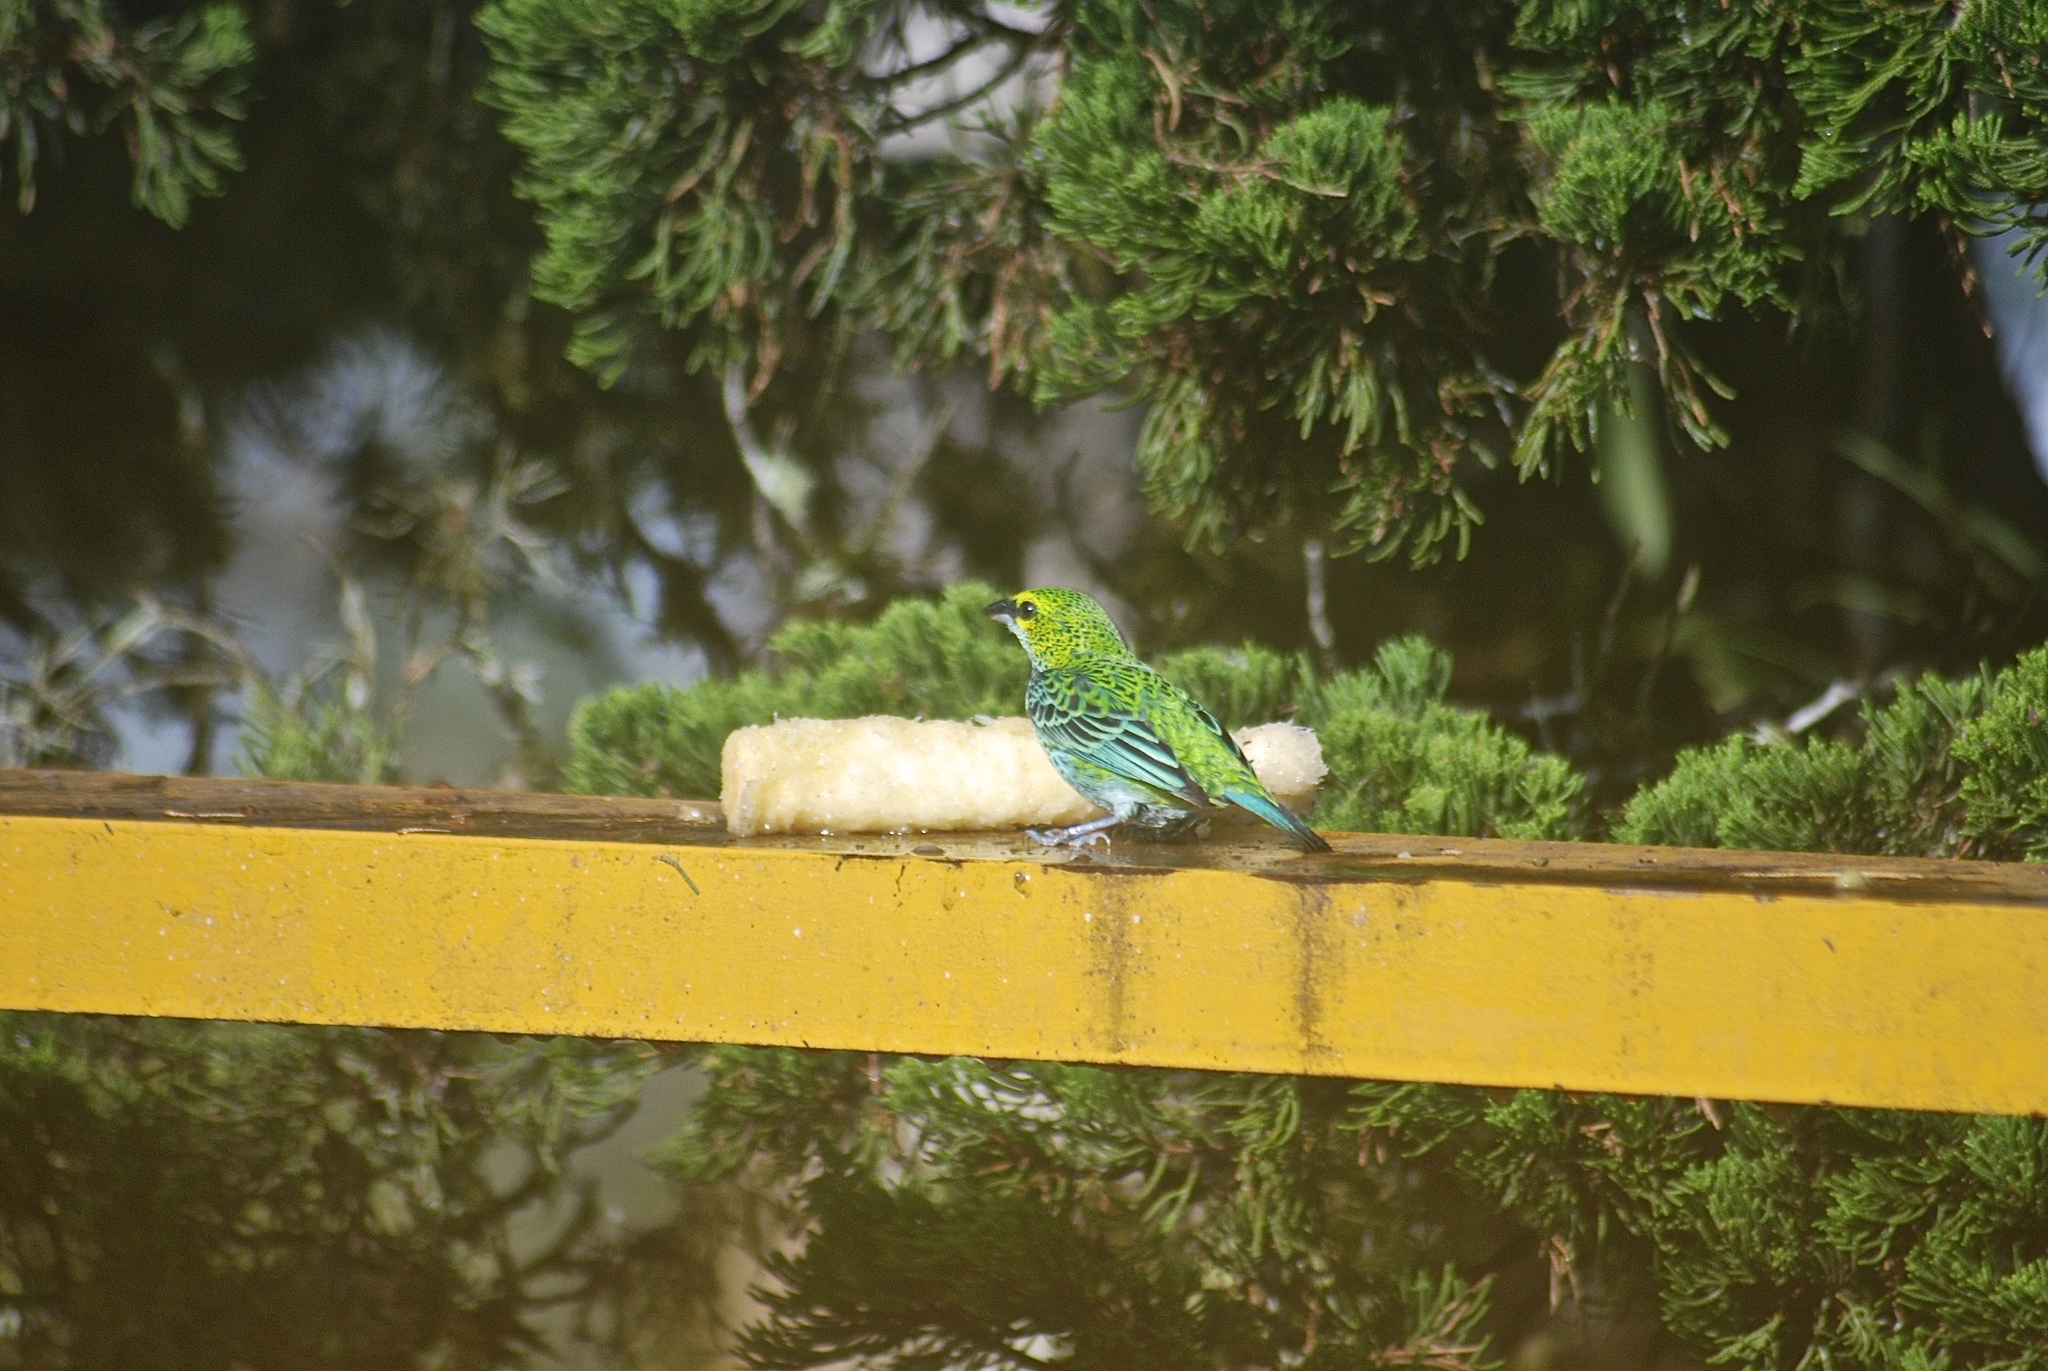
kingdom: Animalia
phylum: Chordata
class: Aves
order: Passeriformes
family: Thraupidae
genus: Ixothraupis
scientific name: Ixothraupis guttata
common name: Speckled tanager
